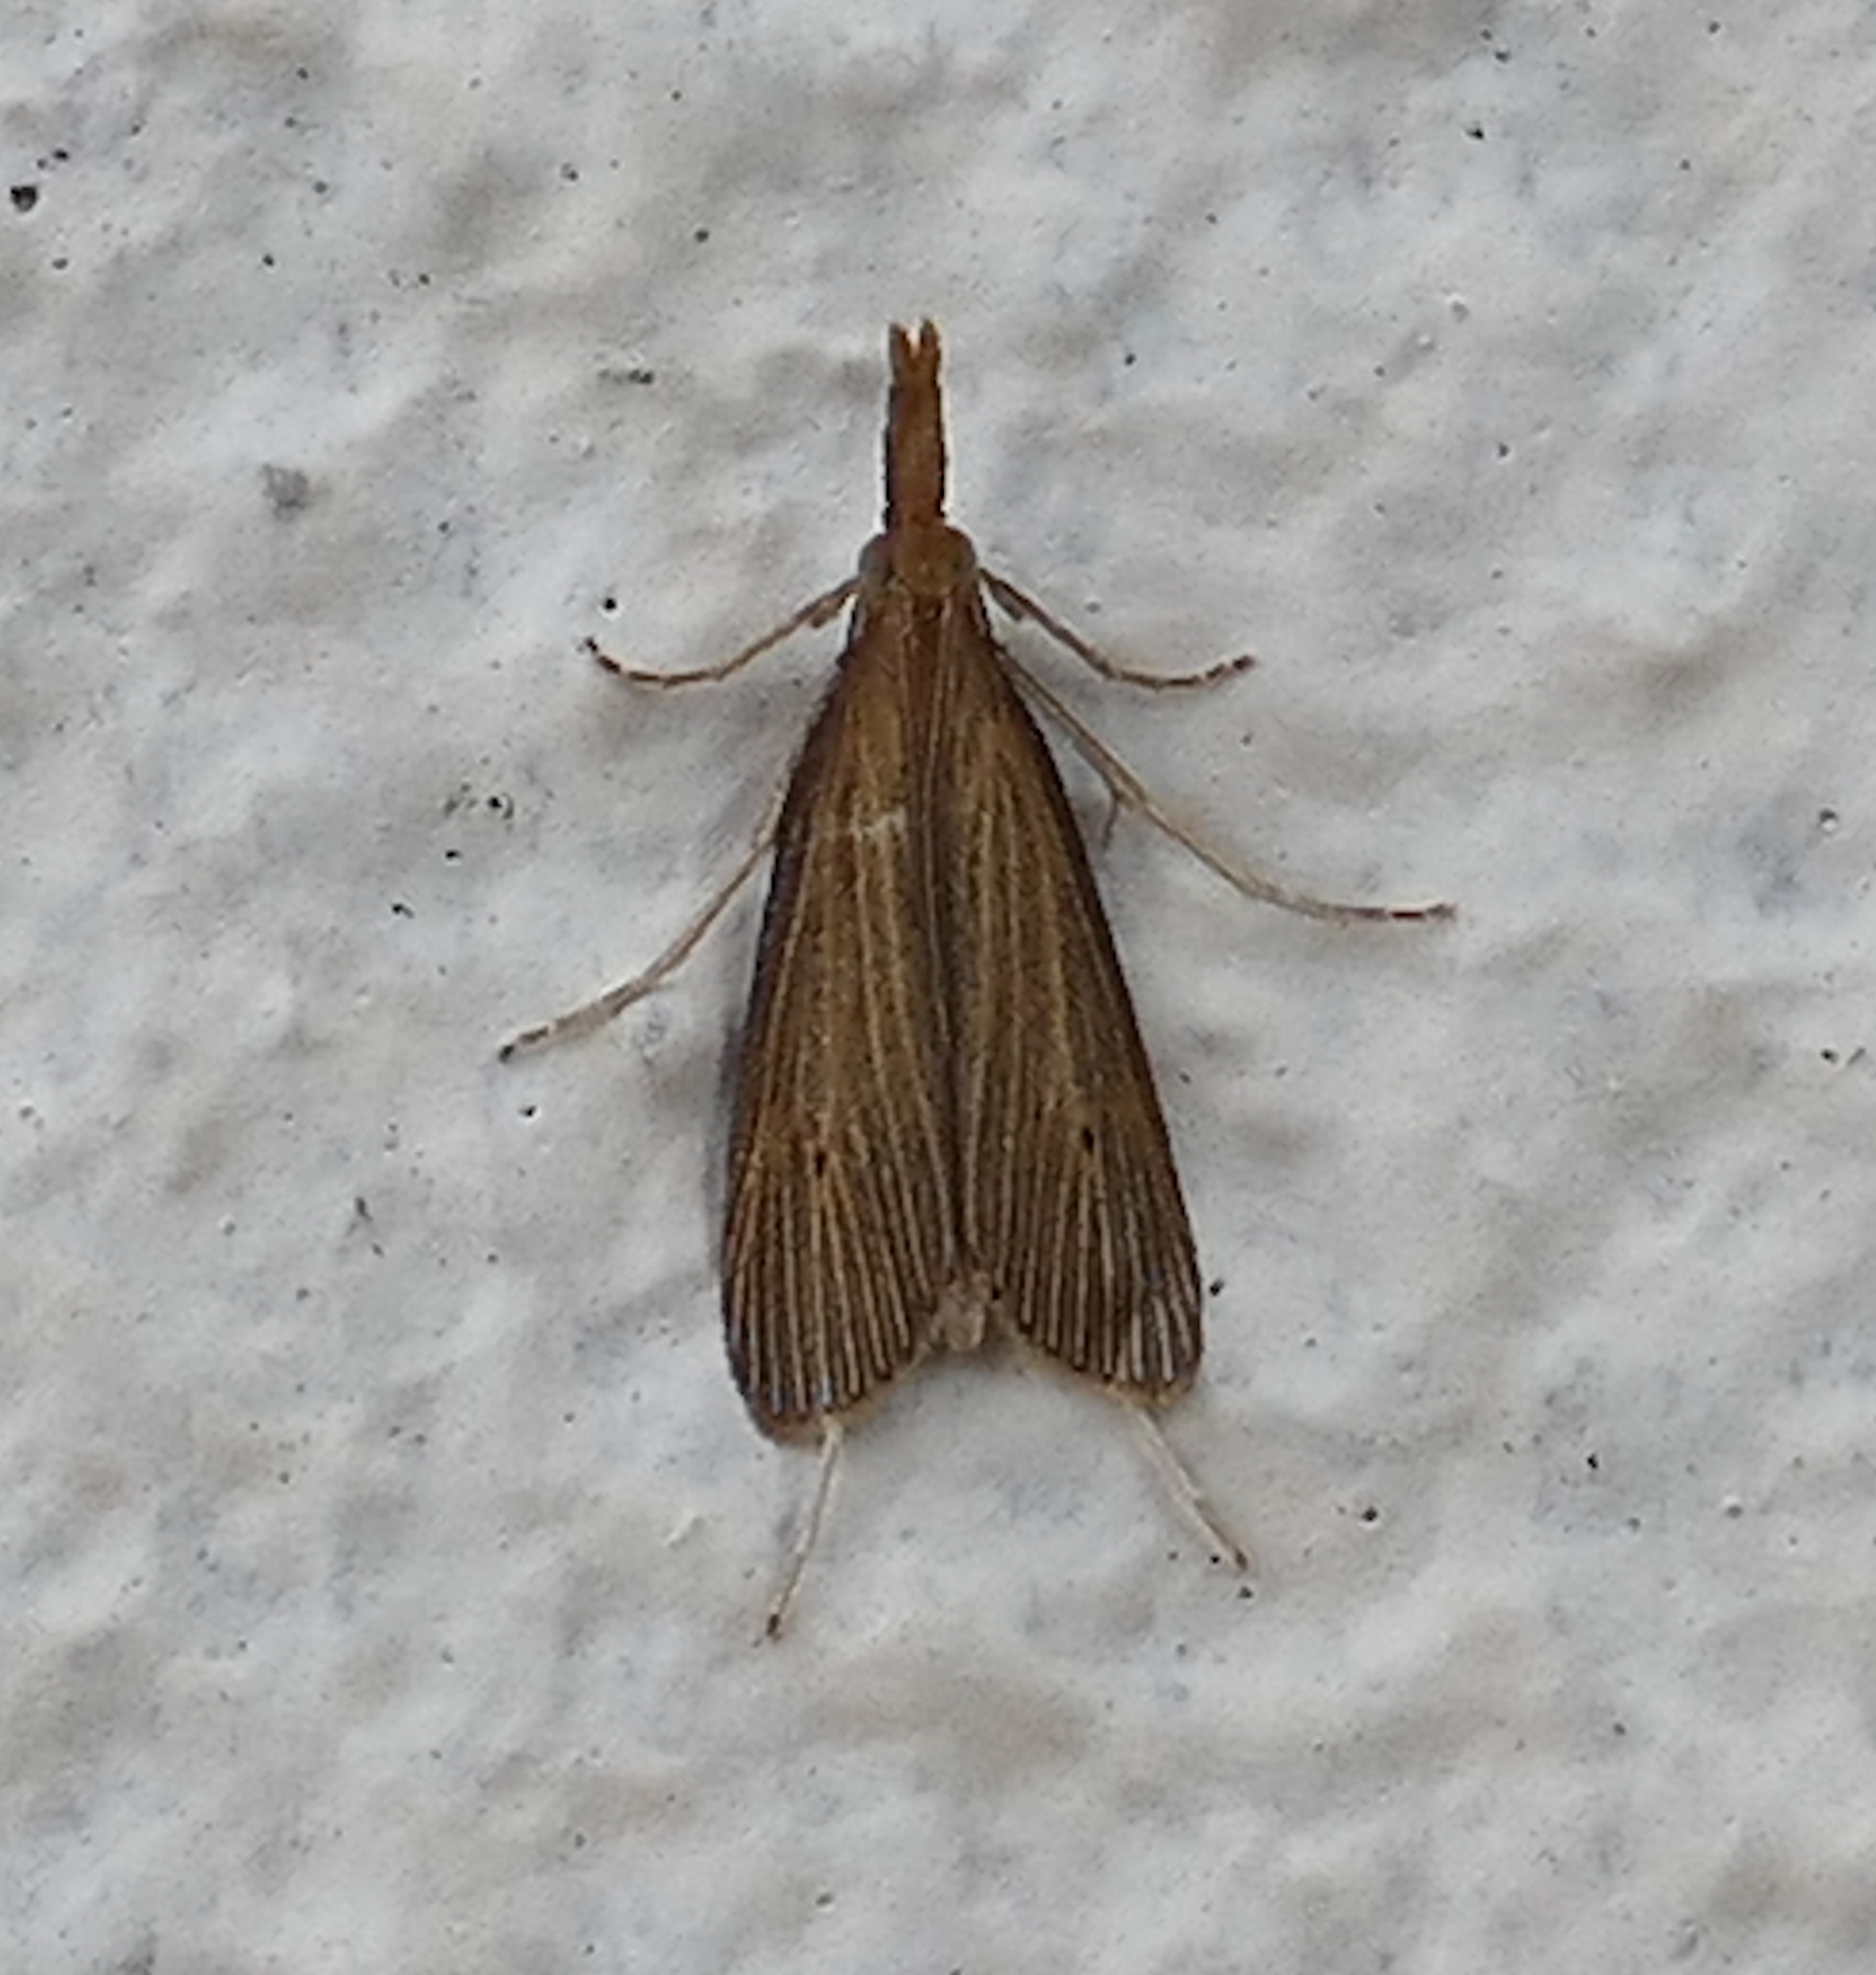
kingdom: Animalia
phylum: Arthropoda
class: Insecta
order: Lepidoptera
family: Crambidae
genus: Eoreuma
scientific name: Eoreuma densellus
